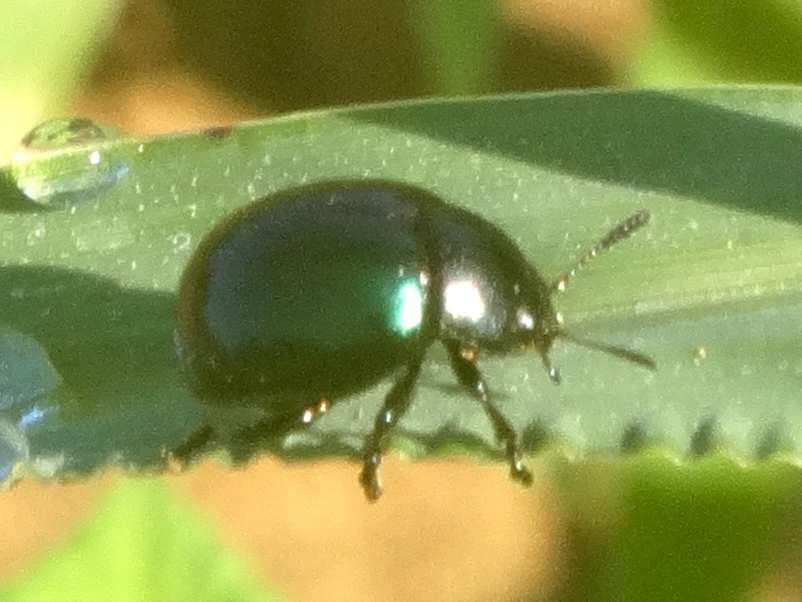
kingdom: Animalia
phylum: Arthropoda
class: Insecta
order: Coleoptera
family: Chrysomelidae
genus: Leptinotarsa
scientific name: Leptinotarsa haldemani
